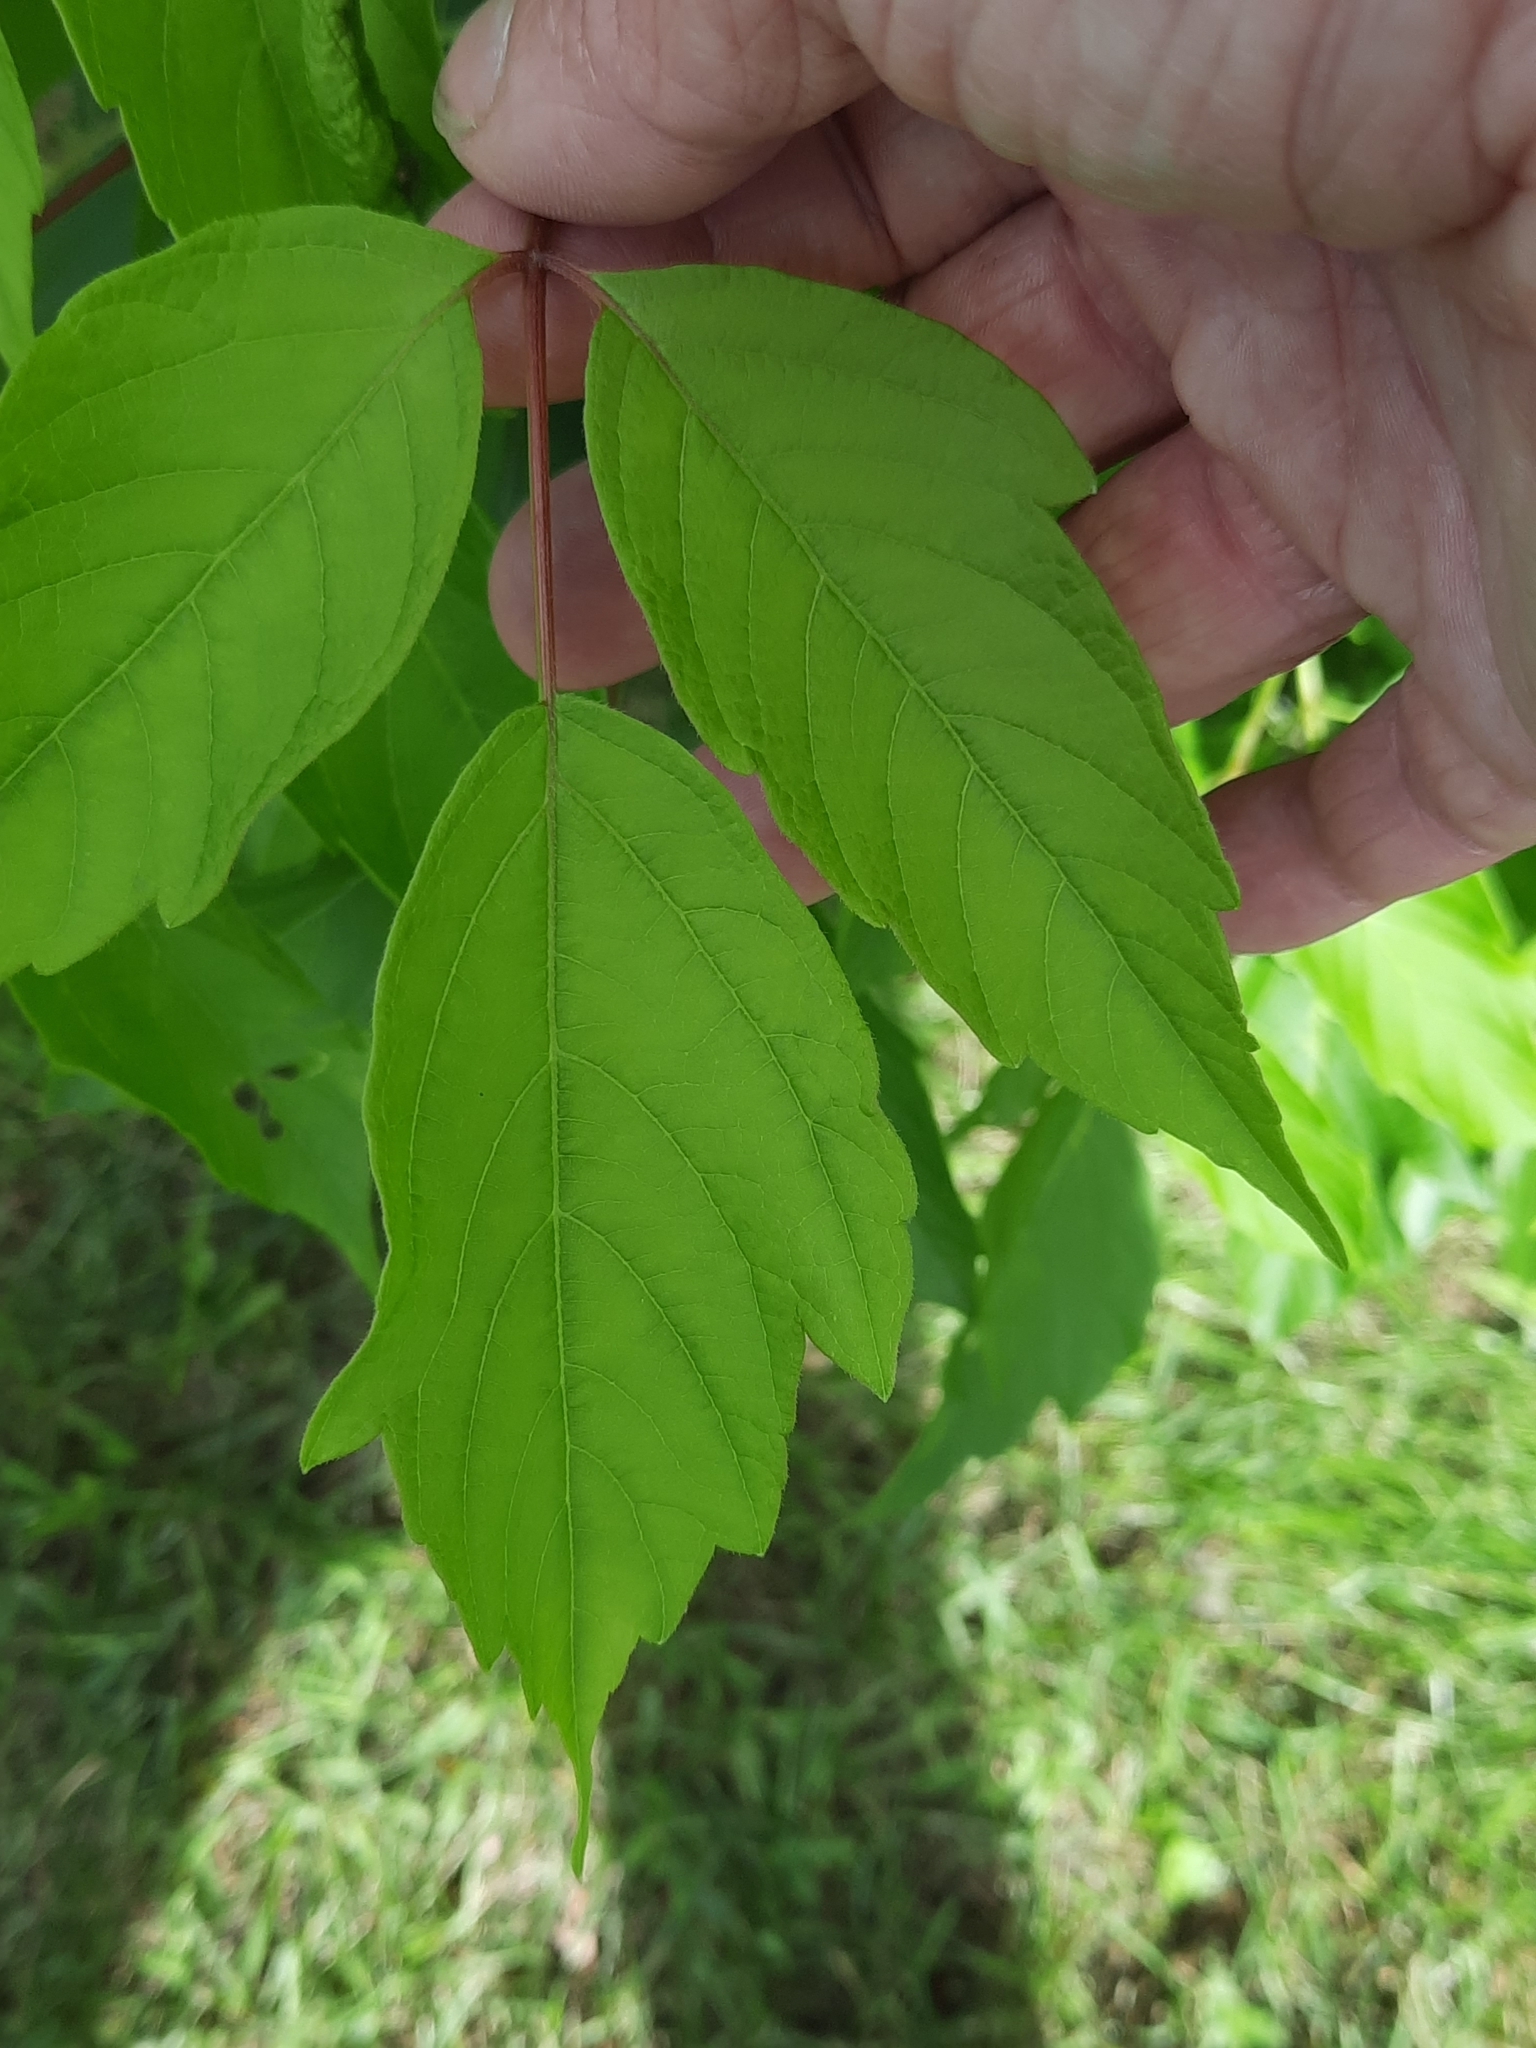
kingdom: Plantae
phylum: Tracheophyta
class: Magnoliopsida
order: Sapindales
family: Sapindaceae
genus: Acer
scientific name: Acer negundo
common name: Ashleaf maple
